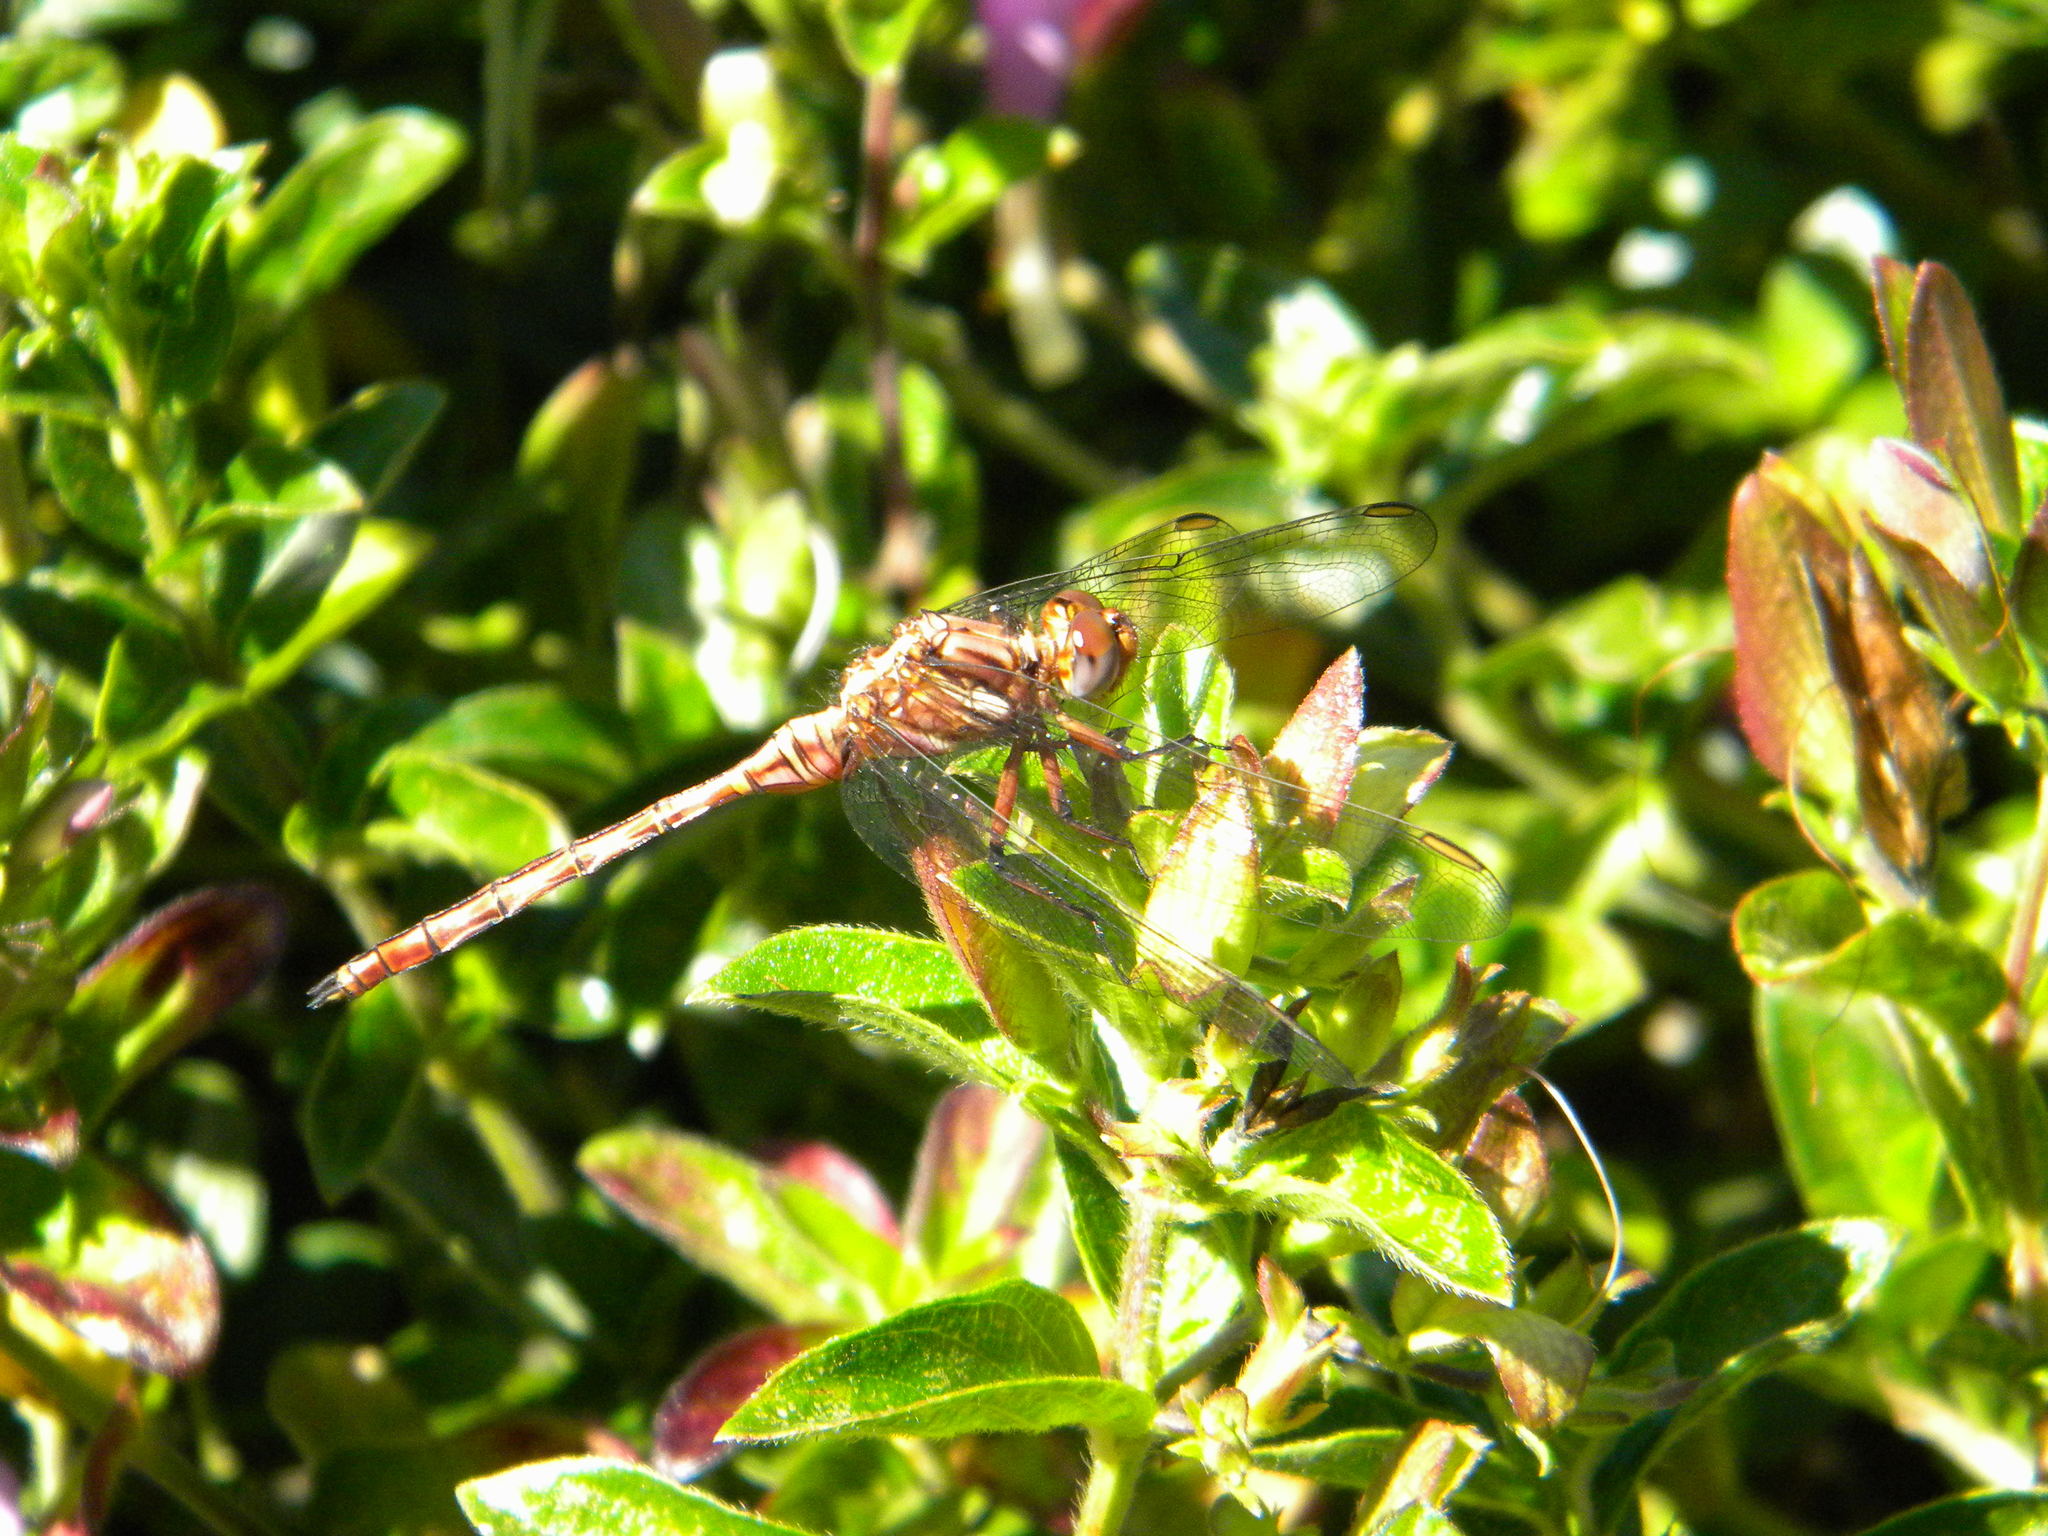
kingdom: Animalia
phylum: Arthropoda
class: Insecta
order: Odonata
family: Libellulidae
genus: Orthetrum
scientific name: Orthetrum julia
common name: Julia skimmer
